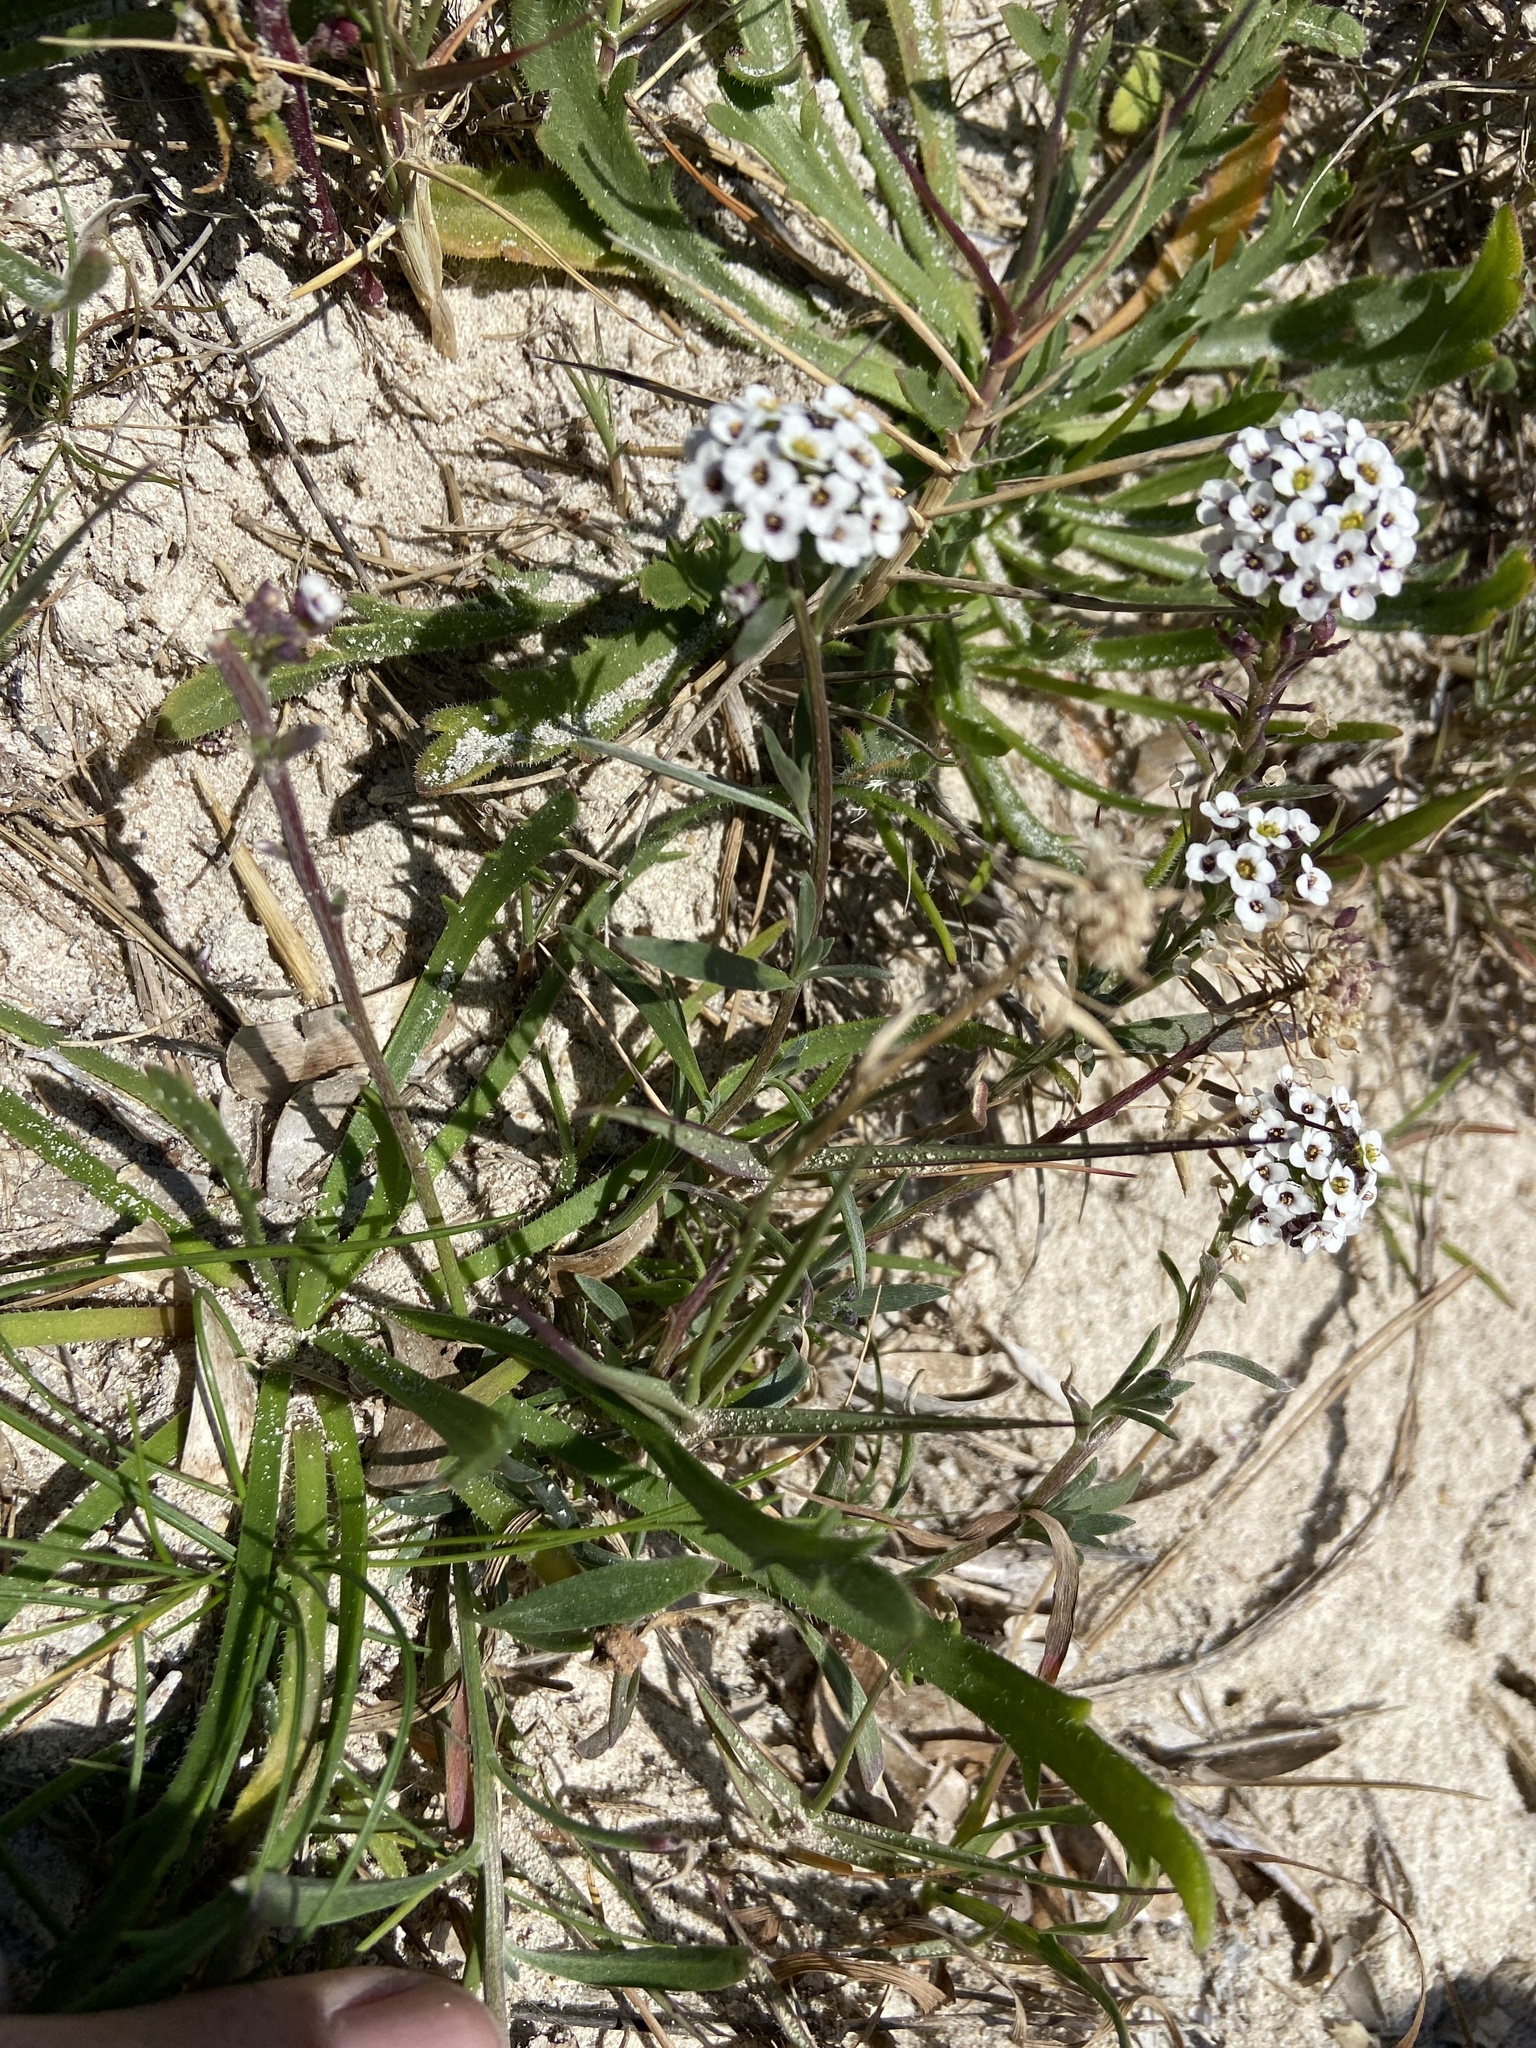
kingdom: Plantae
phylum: Tracheophyta
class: Magnoliopsida
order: Brassicales
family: Brassicaceae
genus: Lobularia
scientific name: Lobularia maritima
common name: Sweet alison
